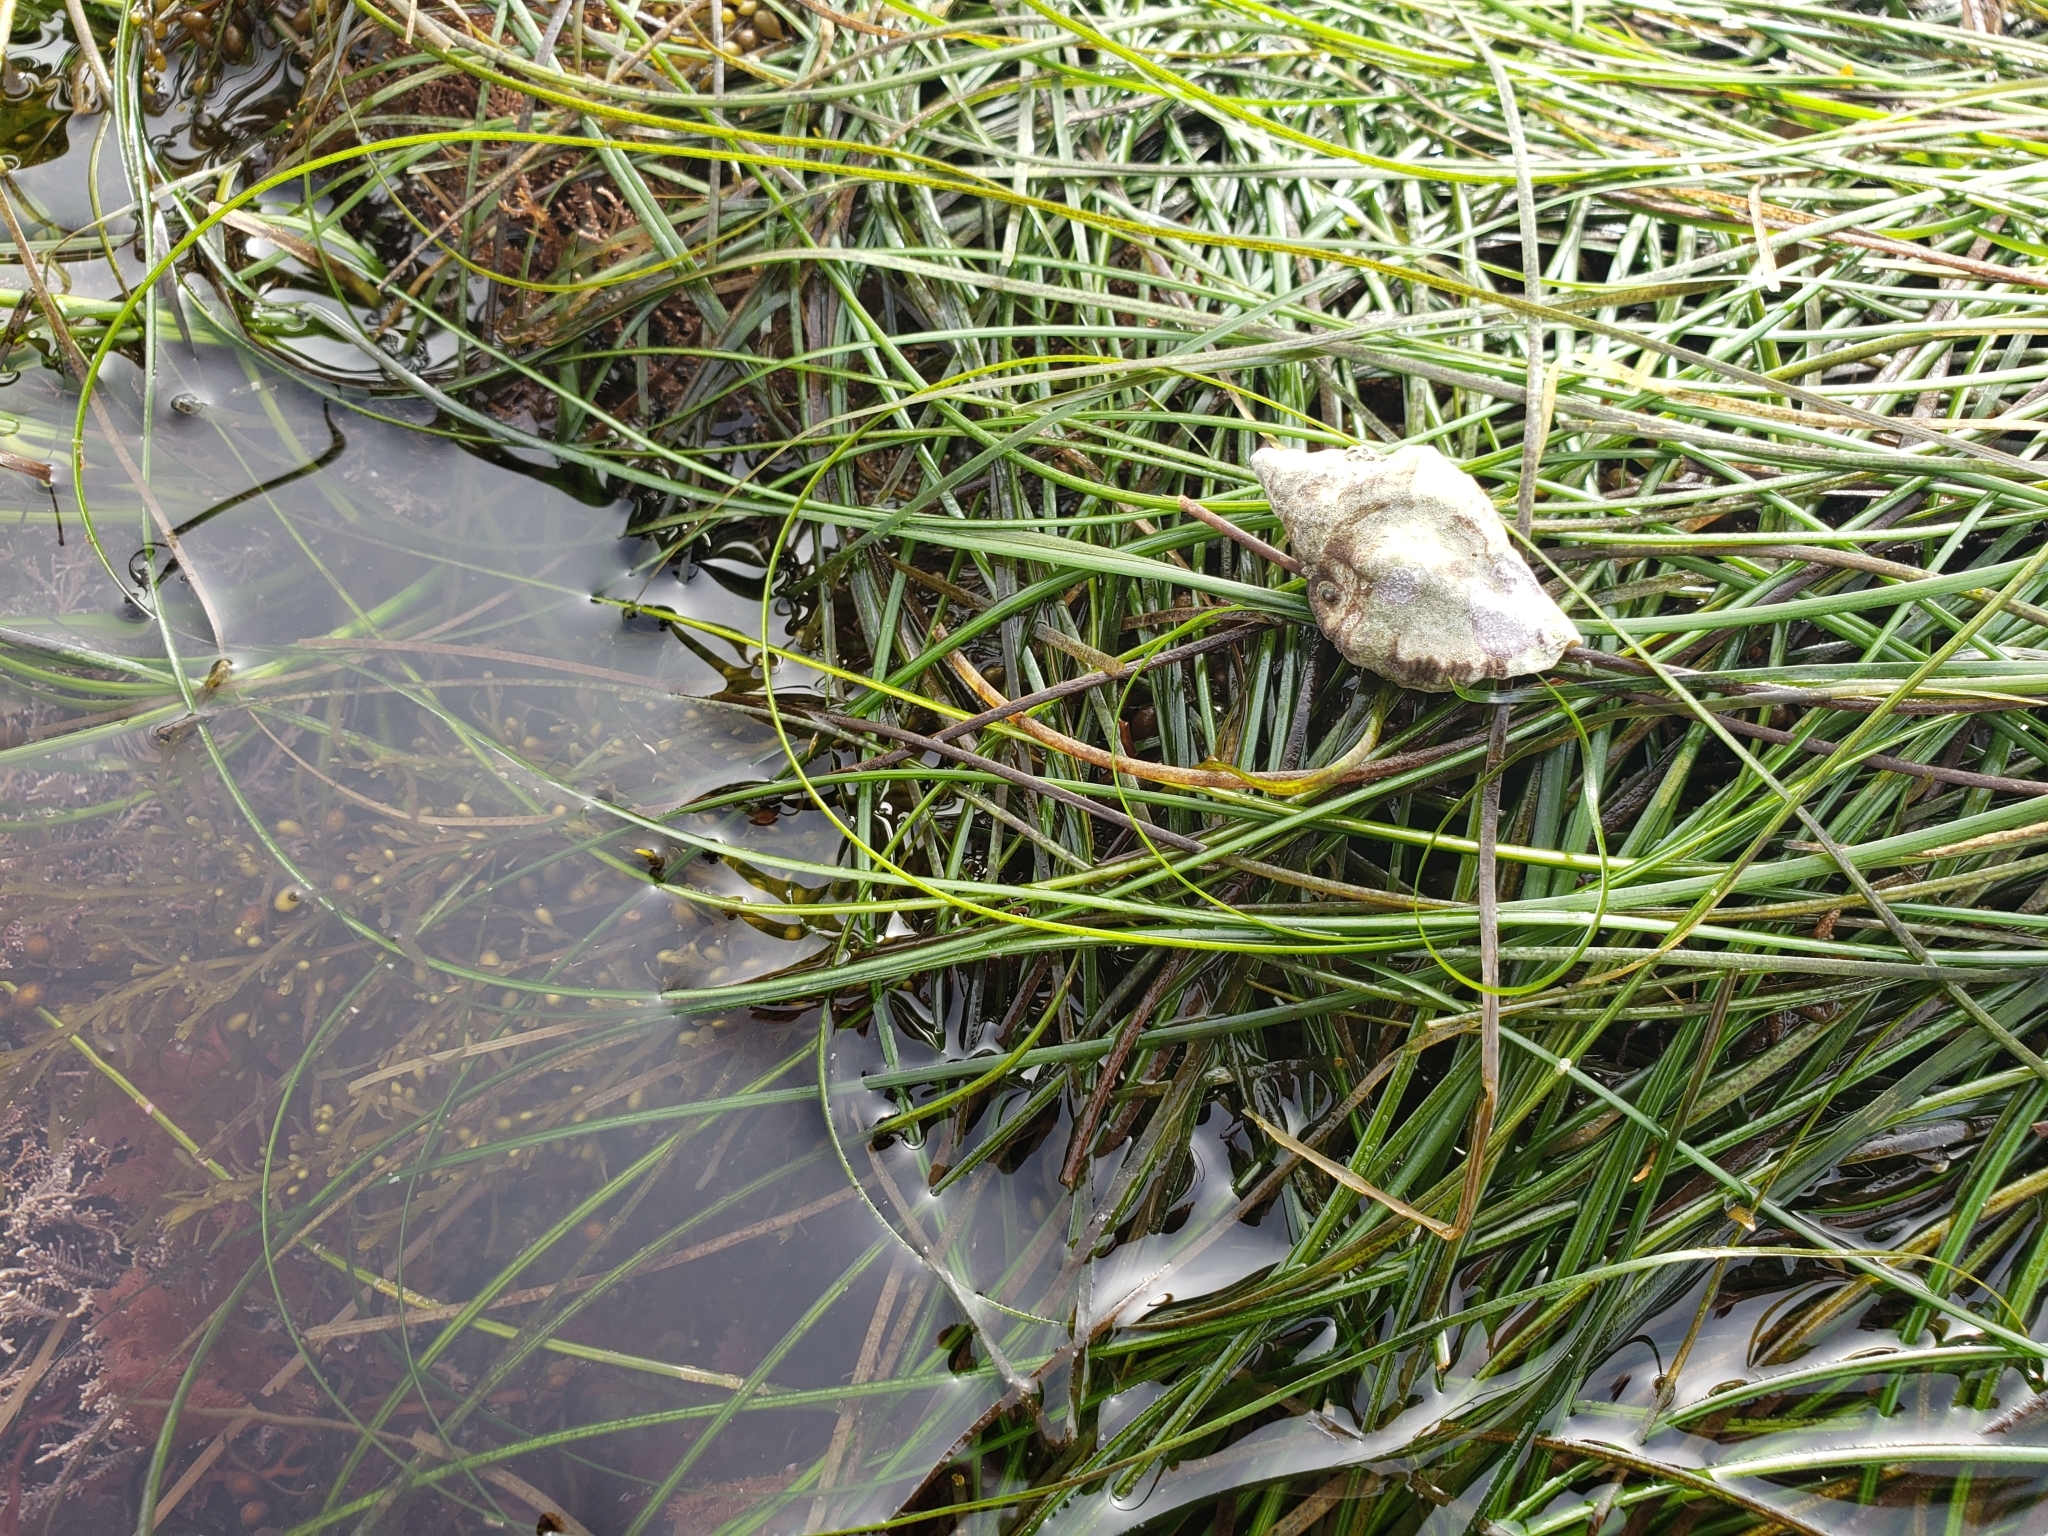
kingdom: Animalia
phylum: Mollusca
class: Gastropoda
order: Neogastropoda
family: Muricidae
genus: Ceratostoma
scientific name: Ceratostoma nuttalli
